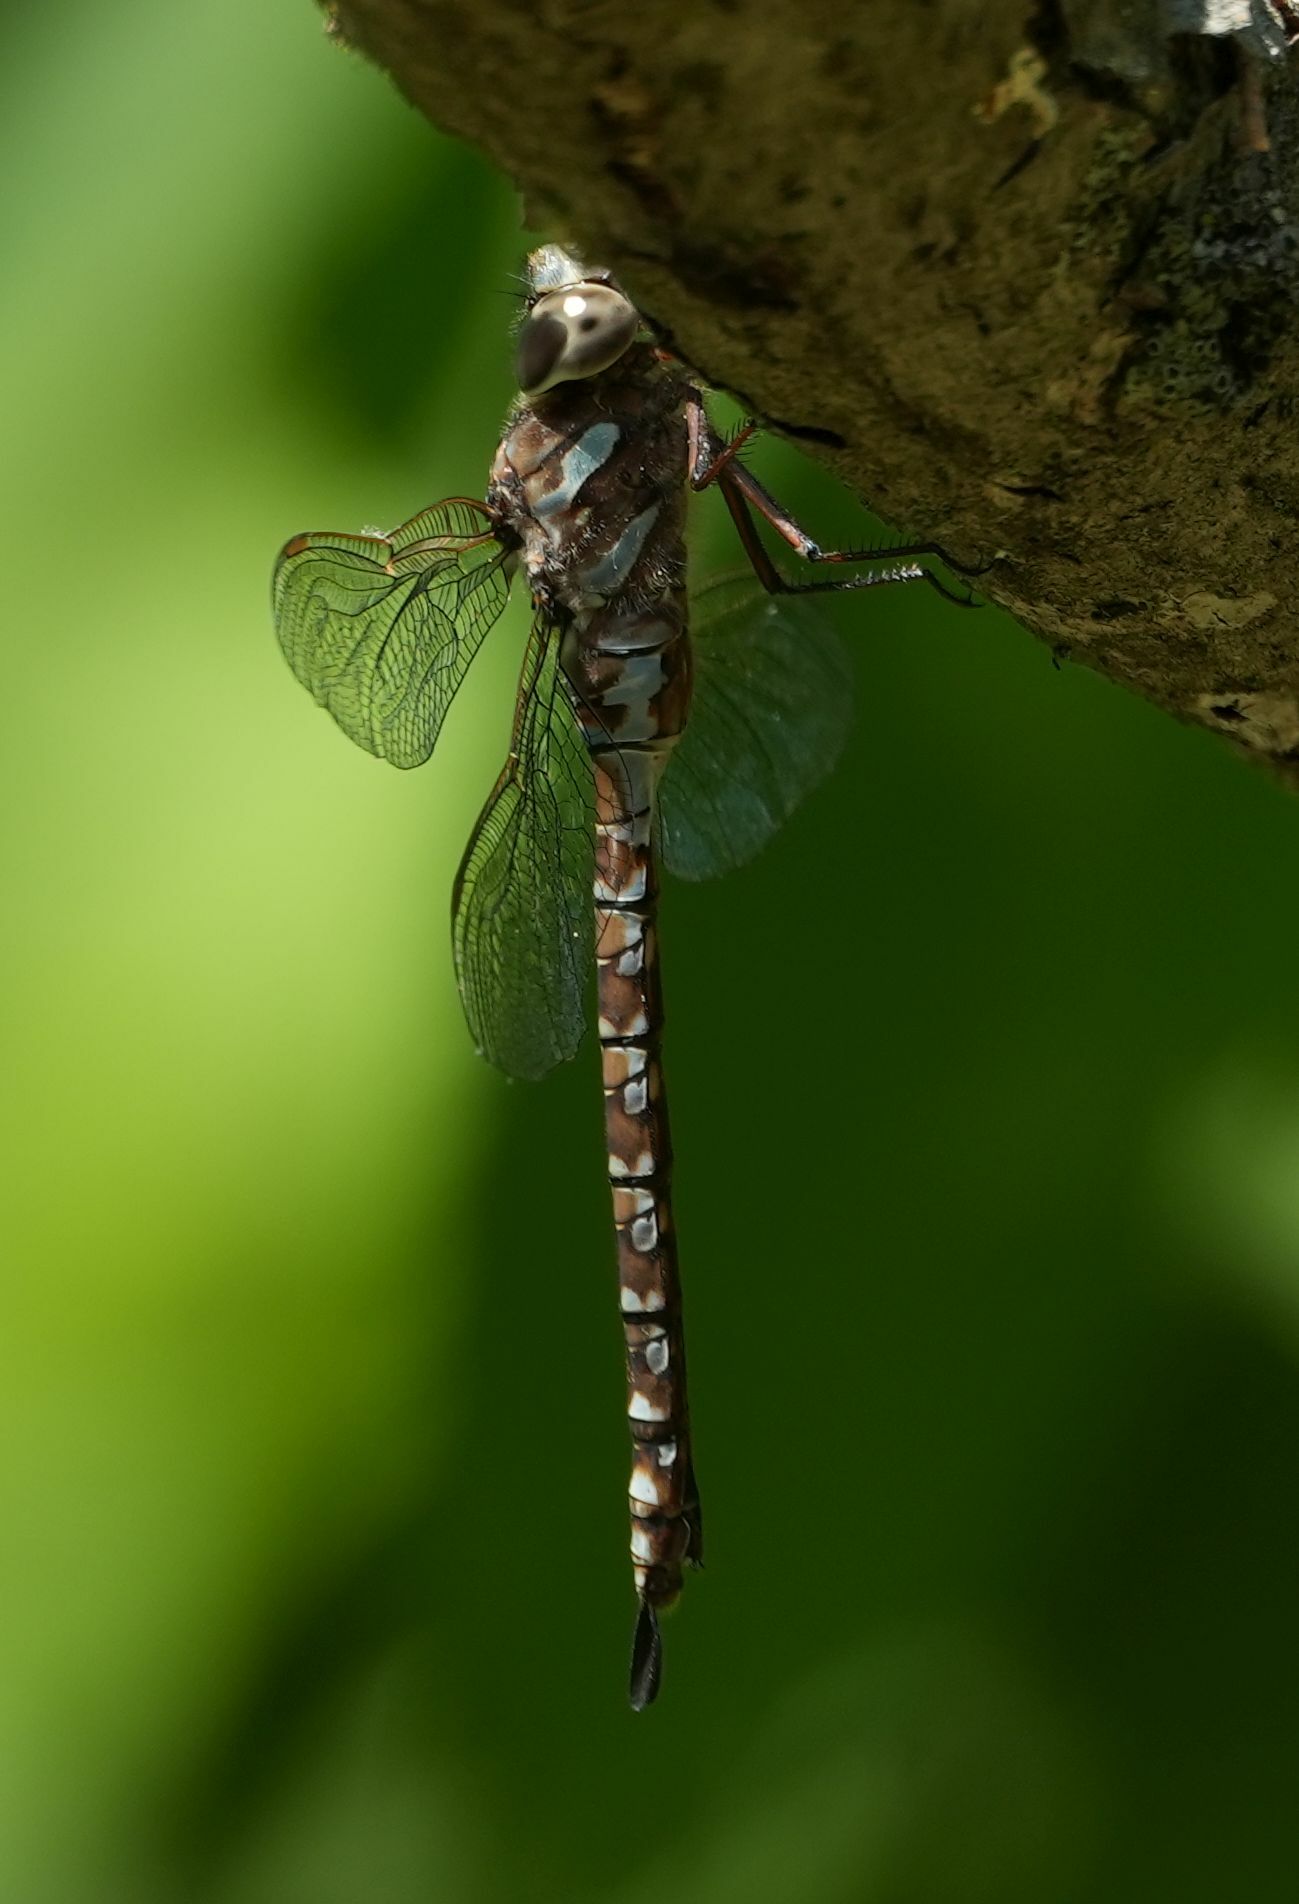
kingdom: Animalia
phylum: Arthropoda
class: Insecta
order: Odonata
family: Aeshnidae
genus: Aeshna
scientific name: Aeshna canadensis
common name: Canada darner
